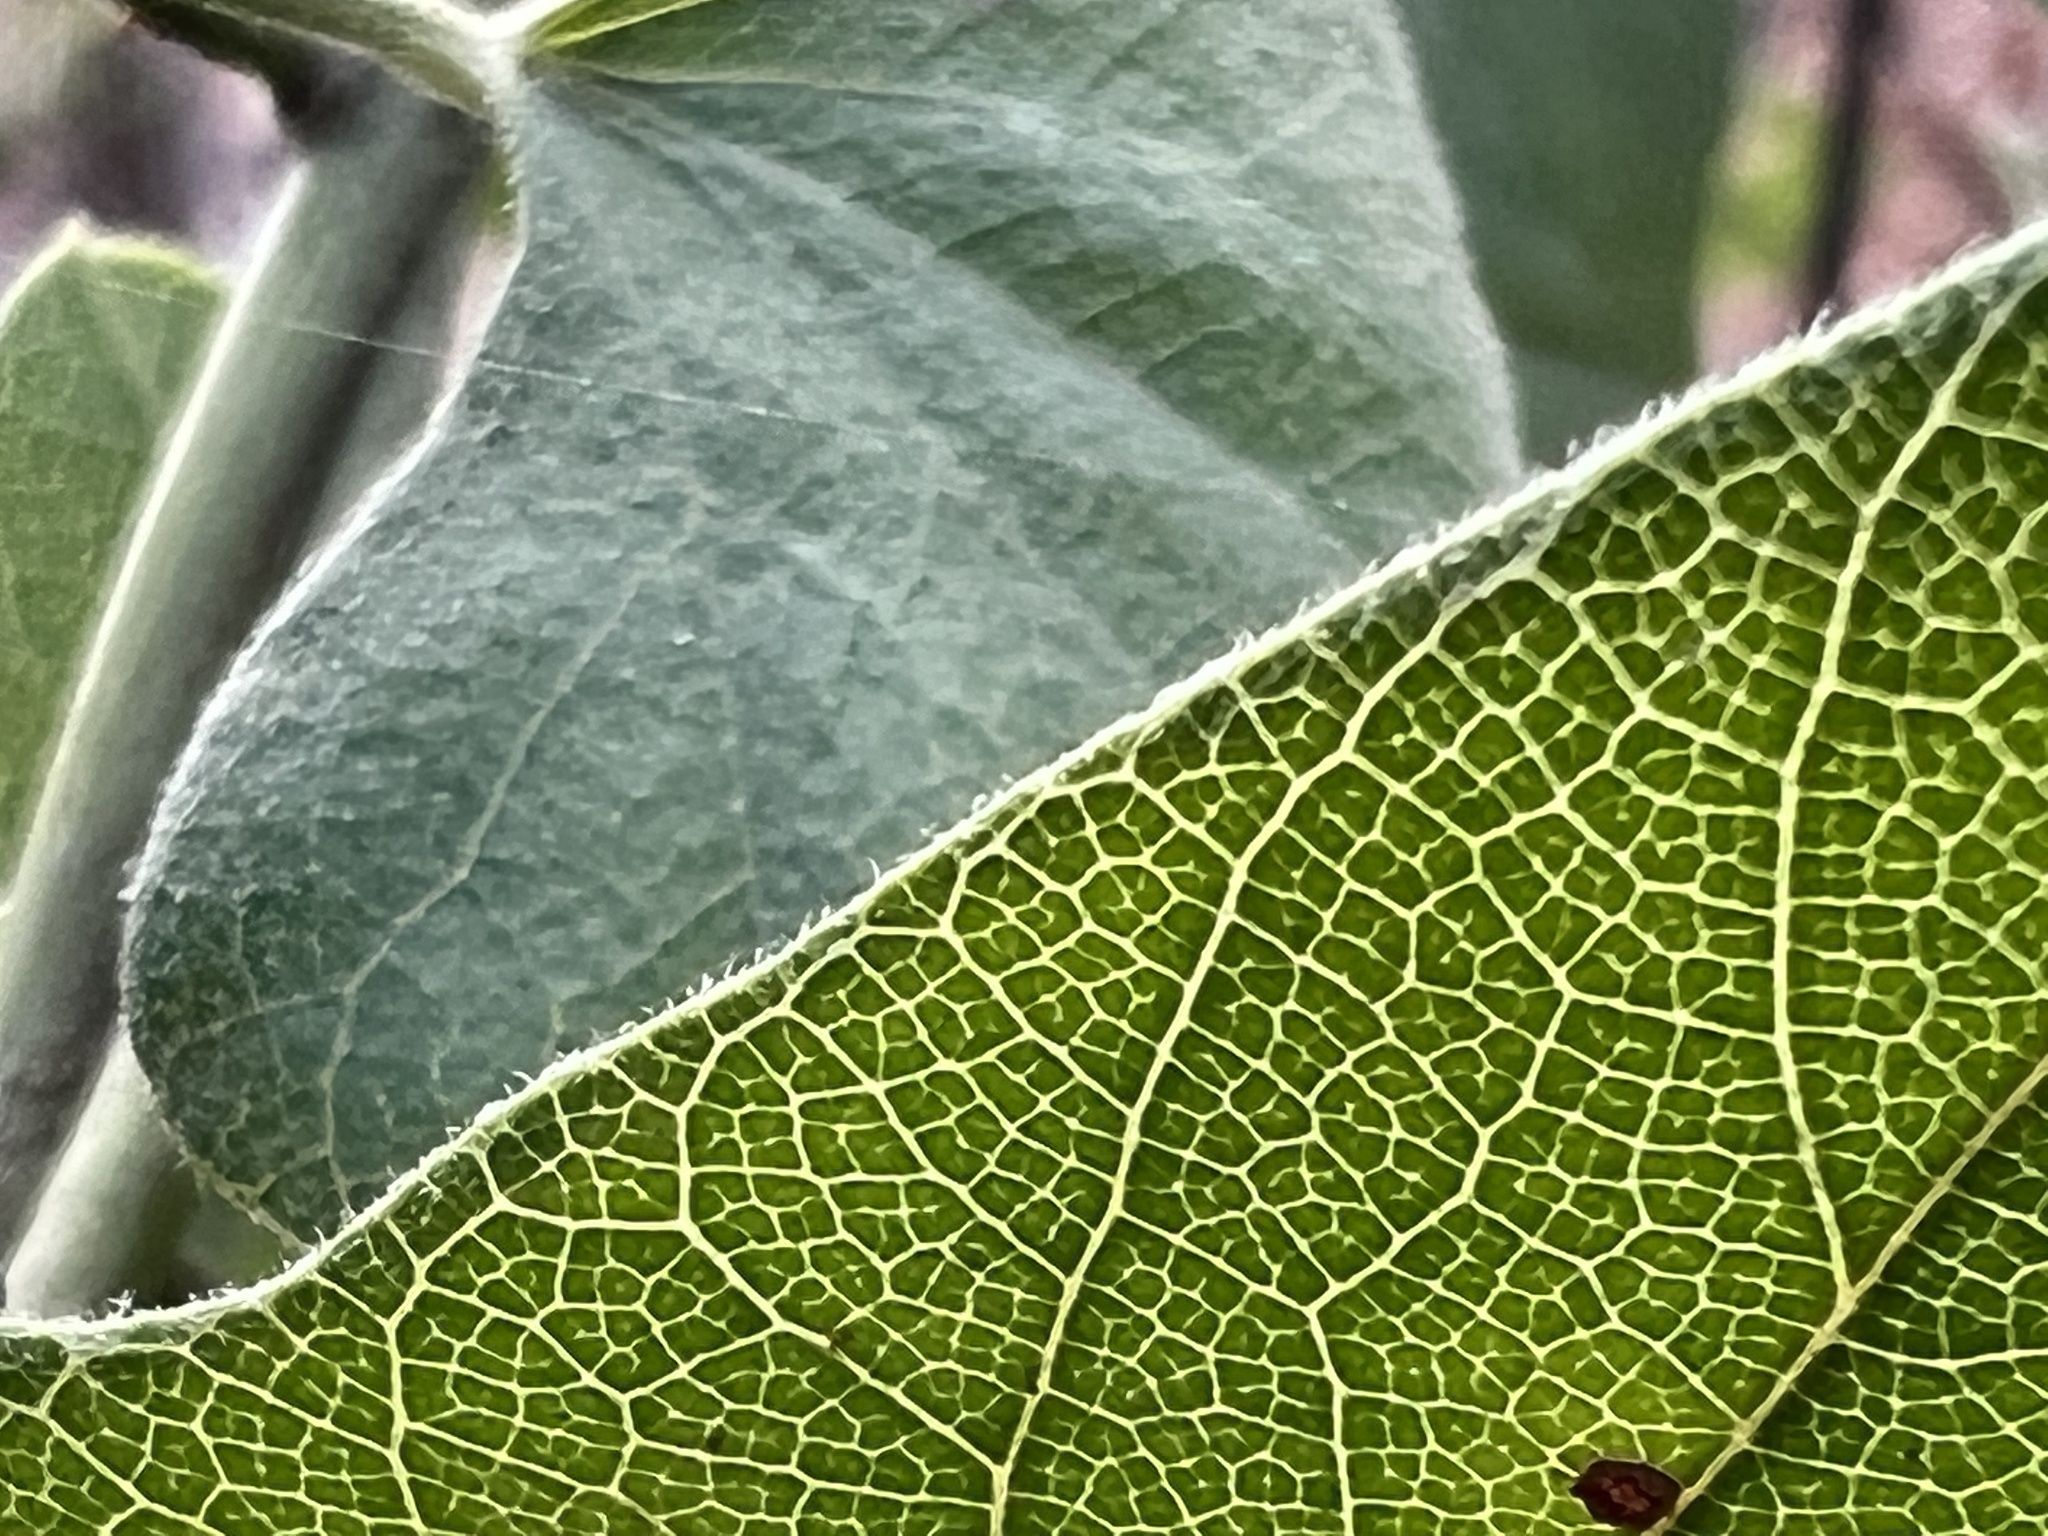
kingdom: Plantae
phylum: Tracheophyta
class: Magnoliopsida
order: Ranunculales
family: Menispermaceae
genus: Cocculus
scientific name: Cocculus carolinus
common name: Carolina moonseed
